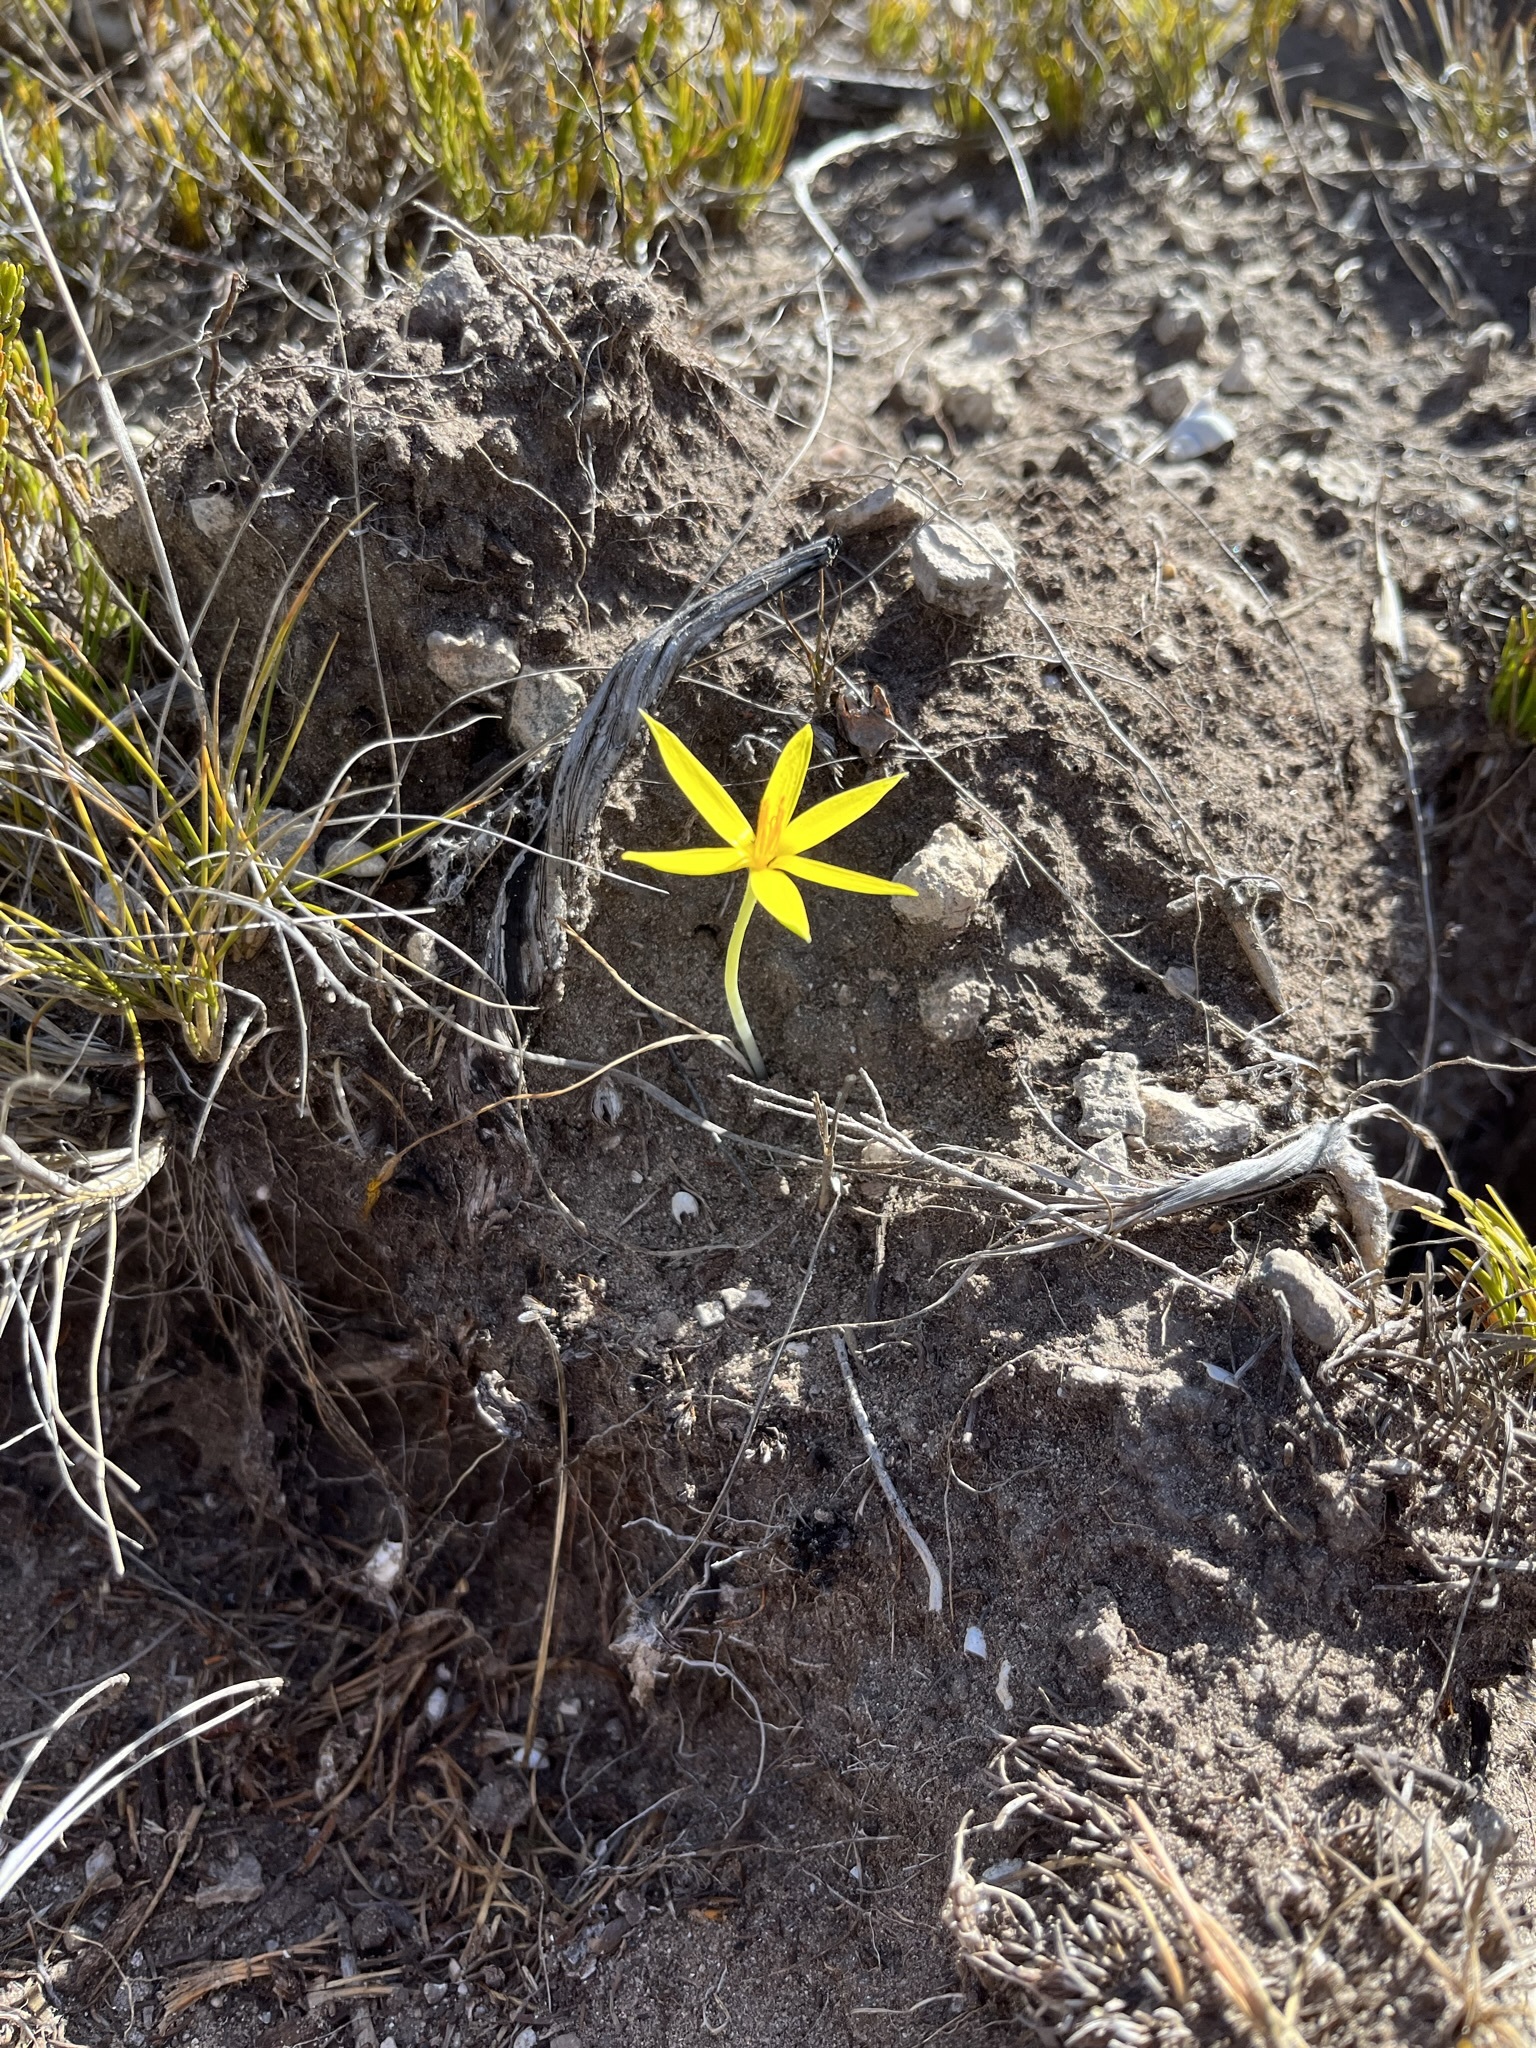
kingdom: Plantae
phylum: Tracheophyta
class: Liliopsida
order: Asparagales
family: Hypoxidaceae
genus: Empodium
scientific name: Empodium plicatum
